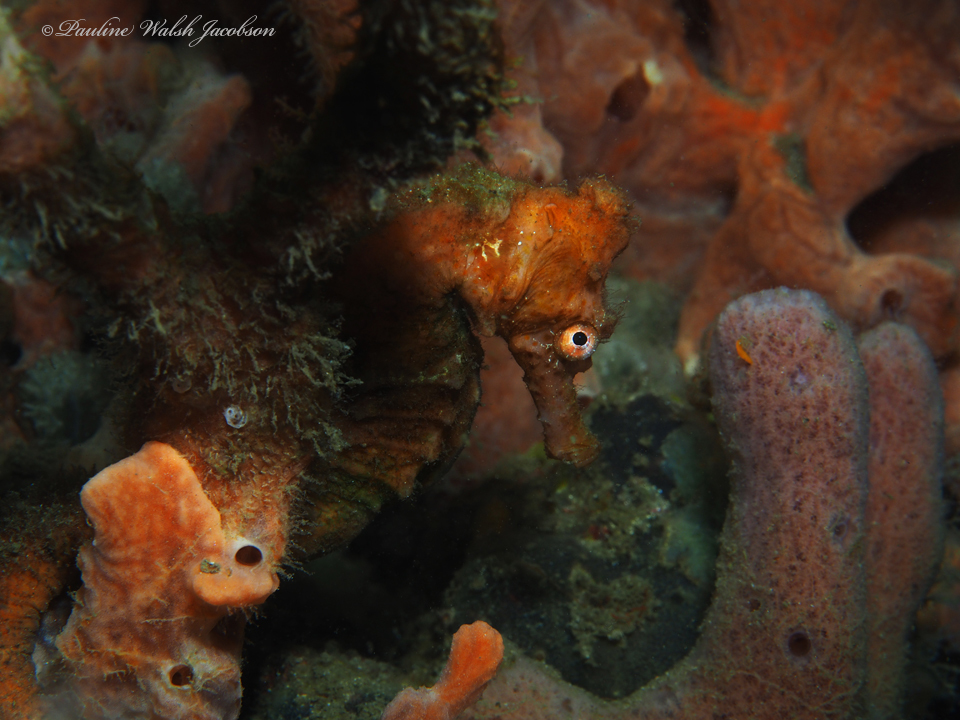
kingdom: Animalia
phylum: Chordata
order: Syngnathiformes
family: Syngnathidae
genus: Hippocampus
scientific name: Hippocampus reidi
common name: Slender seahorse
